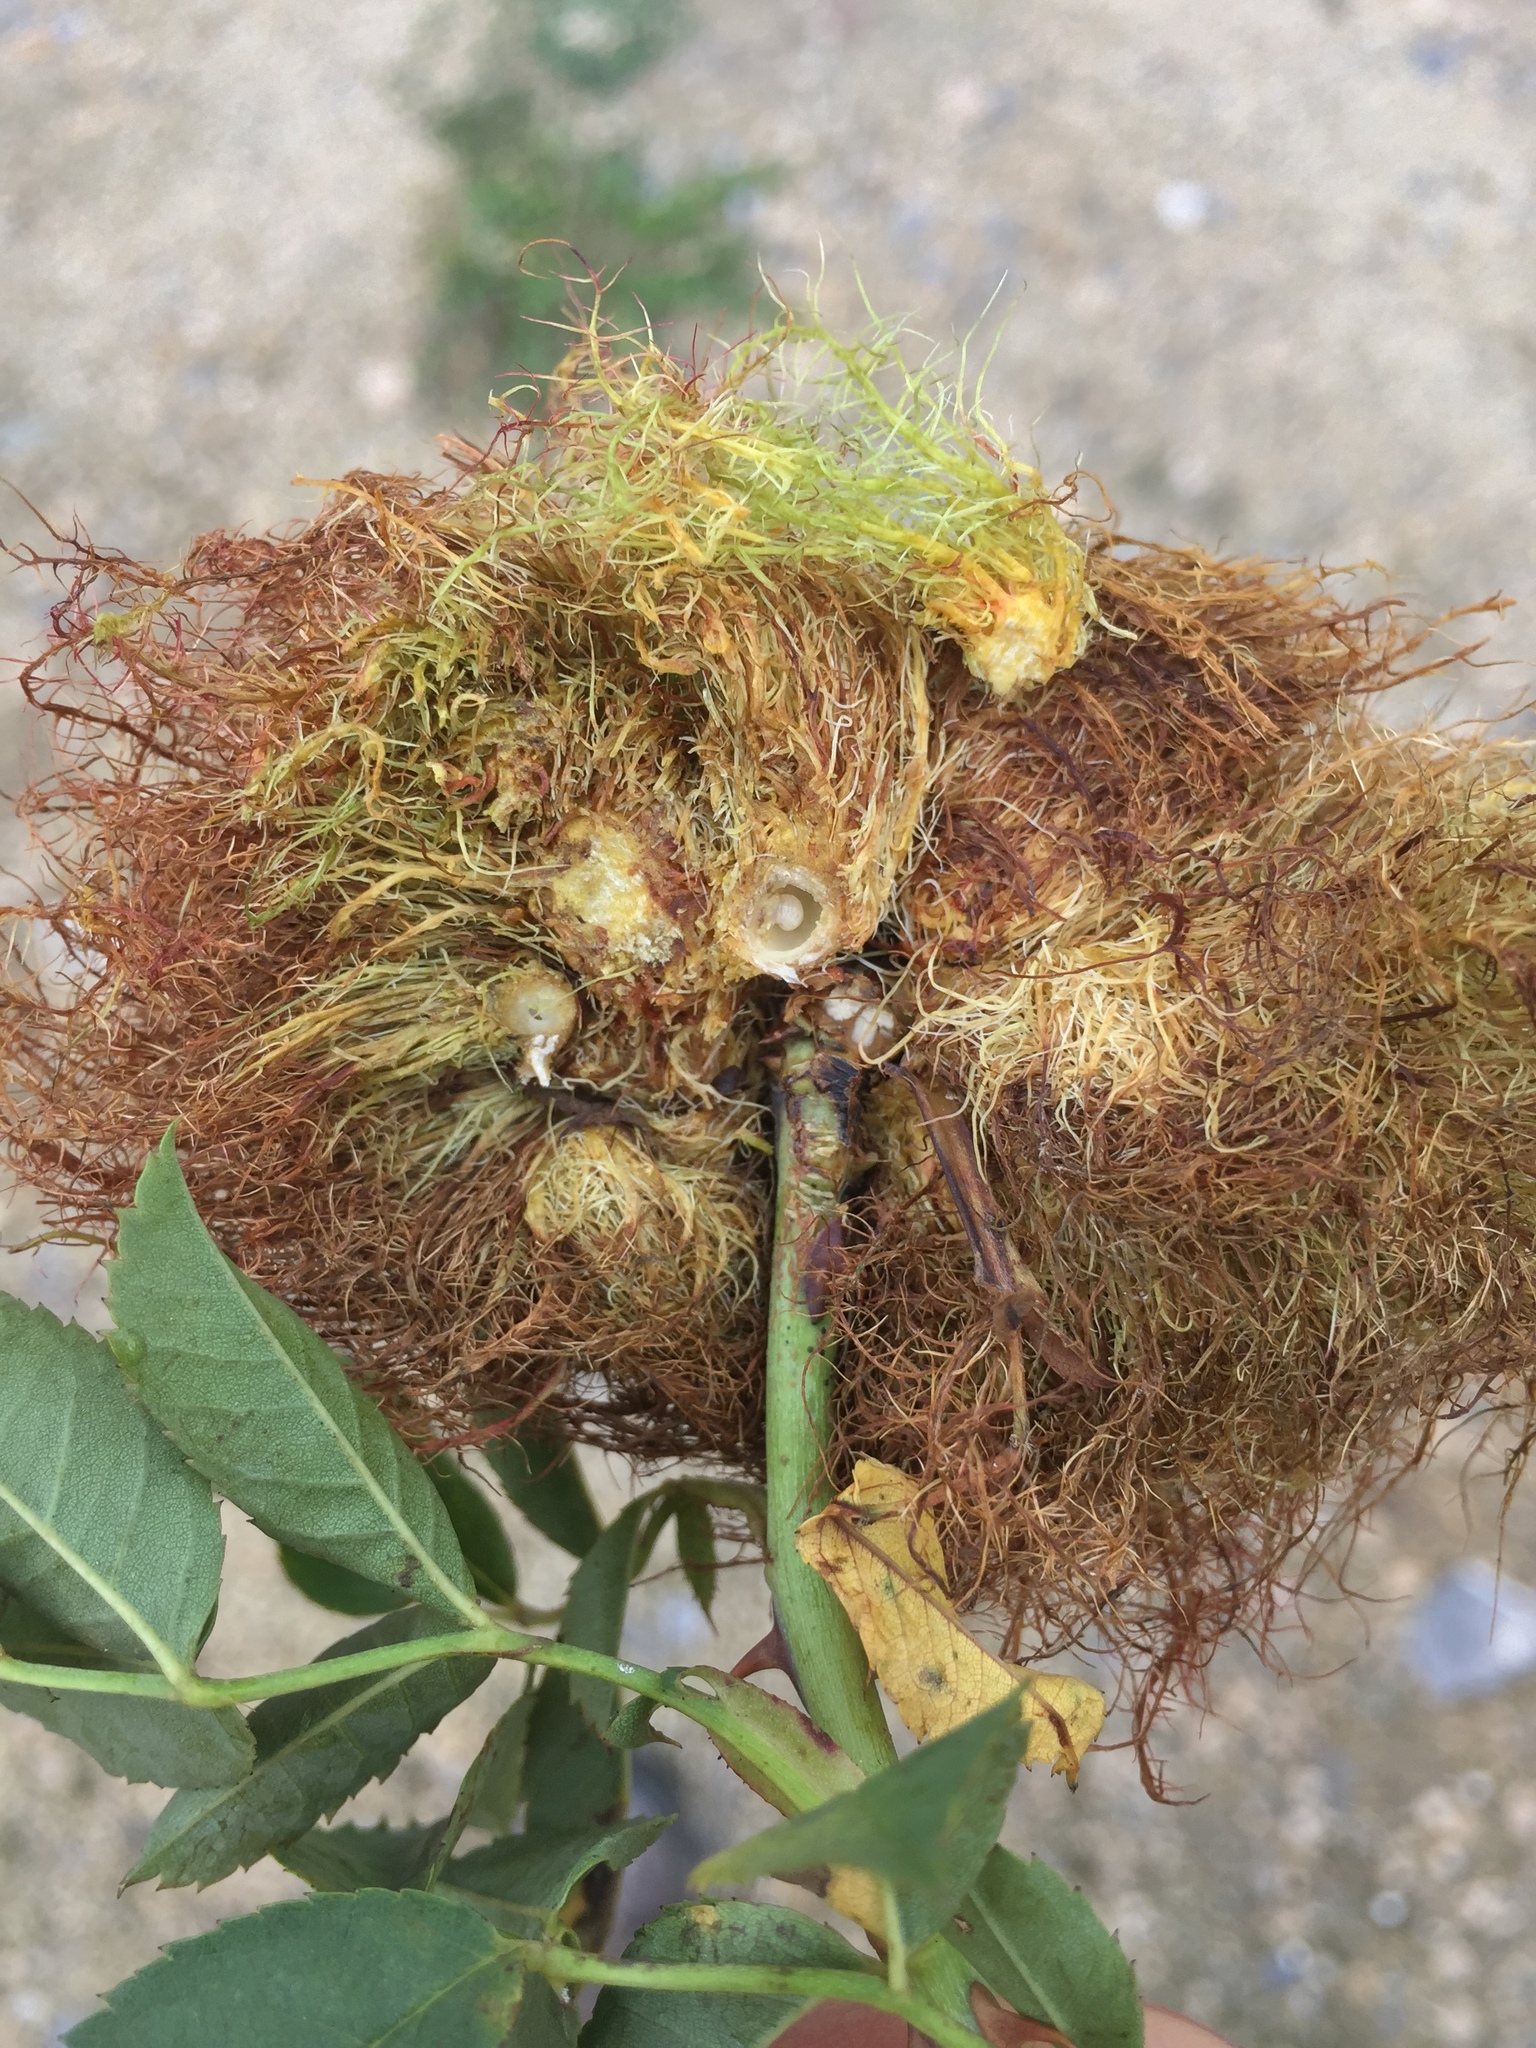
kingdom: Animalia
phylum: Arthropoda
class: Insecta
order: Hymenoptera
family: Cynipidae
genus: Diplolepis
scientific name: Diplolepis rosae
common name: Bedeguar gall
